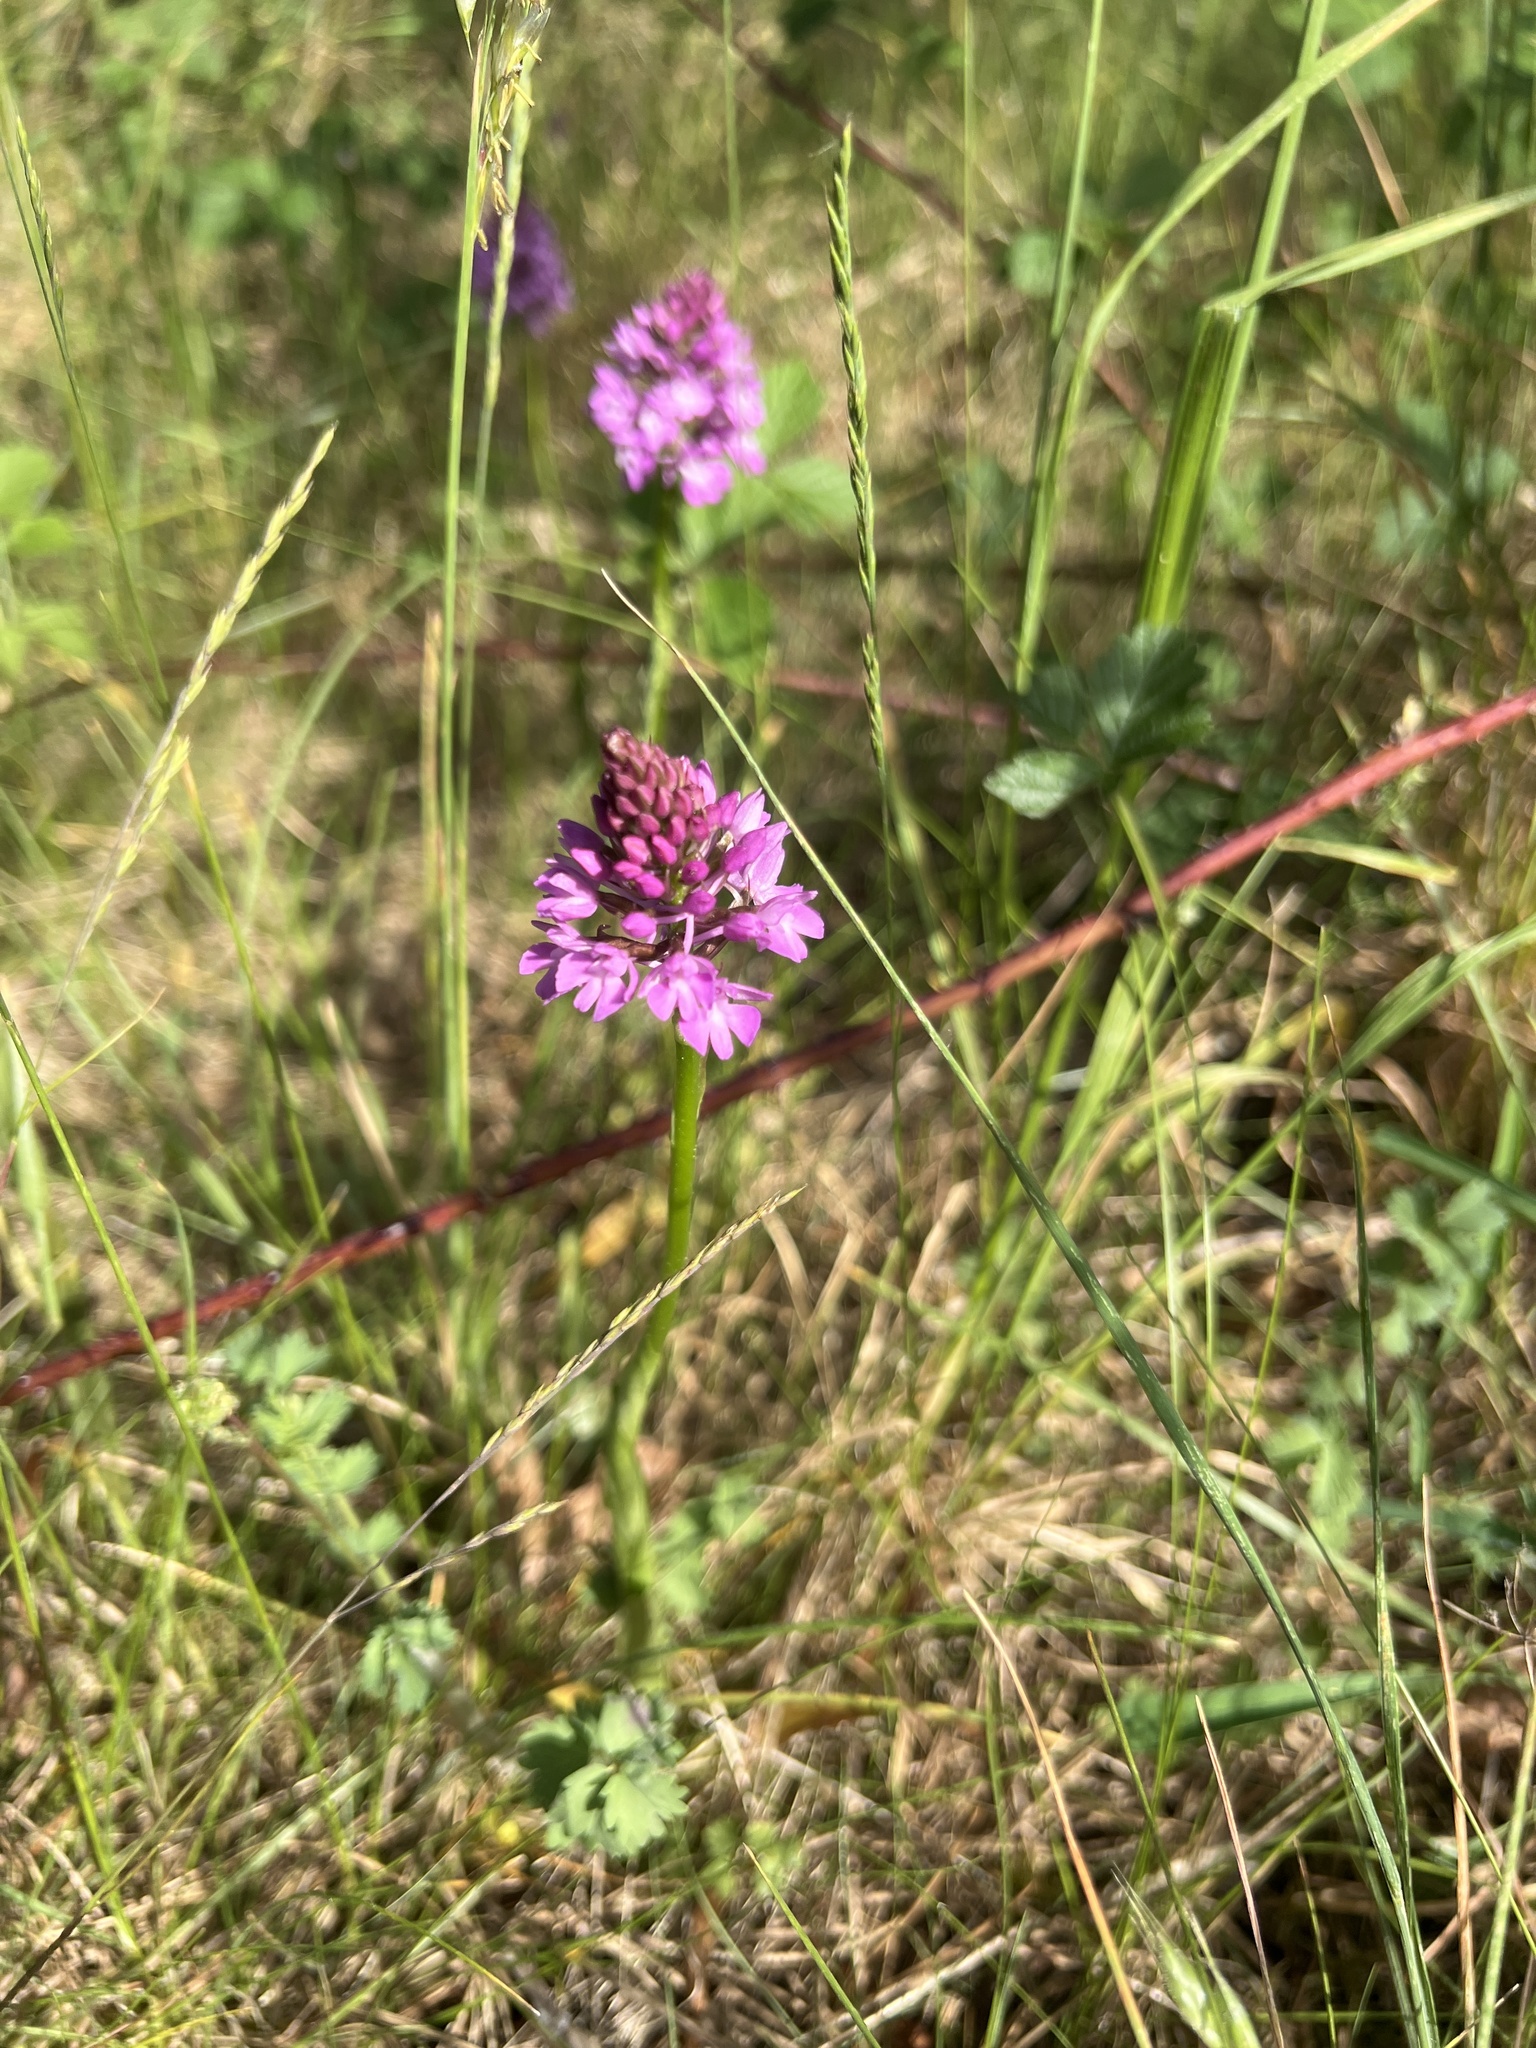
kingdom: Plantae
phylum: Tracheophyta
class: Liliopsida
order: Asparagales
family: Orchidaceae
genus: Anacamptis
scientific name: Anacamptis pyramidalis
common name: Pyramidal orchid
